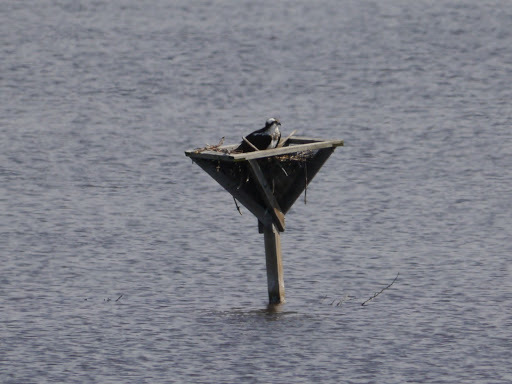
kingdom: Animalia
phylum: Chordata
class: Aves
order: Accipitriformes
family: Pandionidae
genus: Pandion
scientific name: Pandion haliaetus
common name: Osprey
